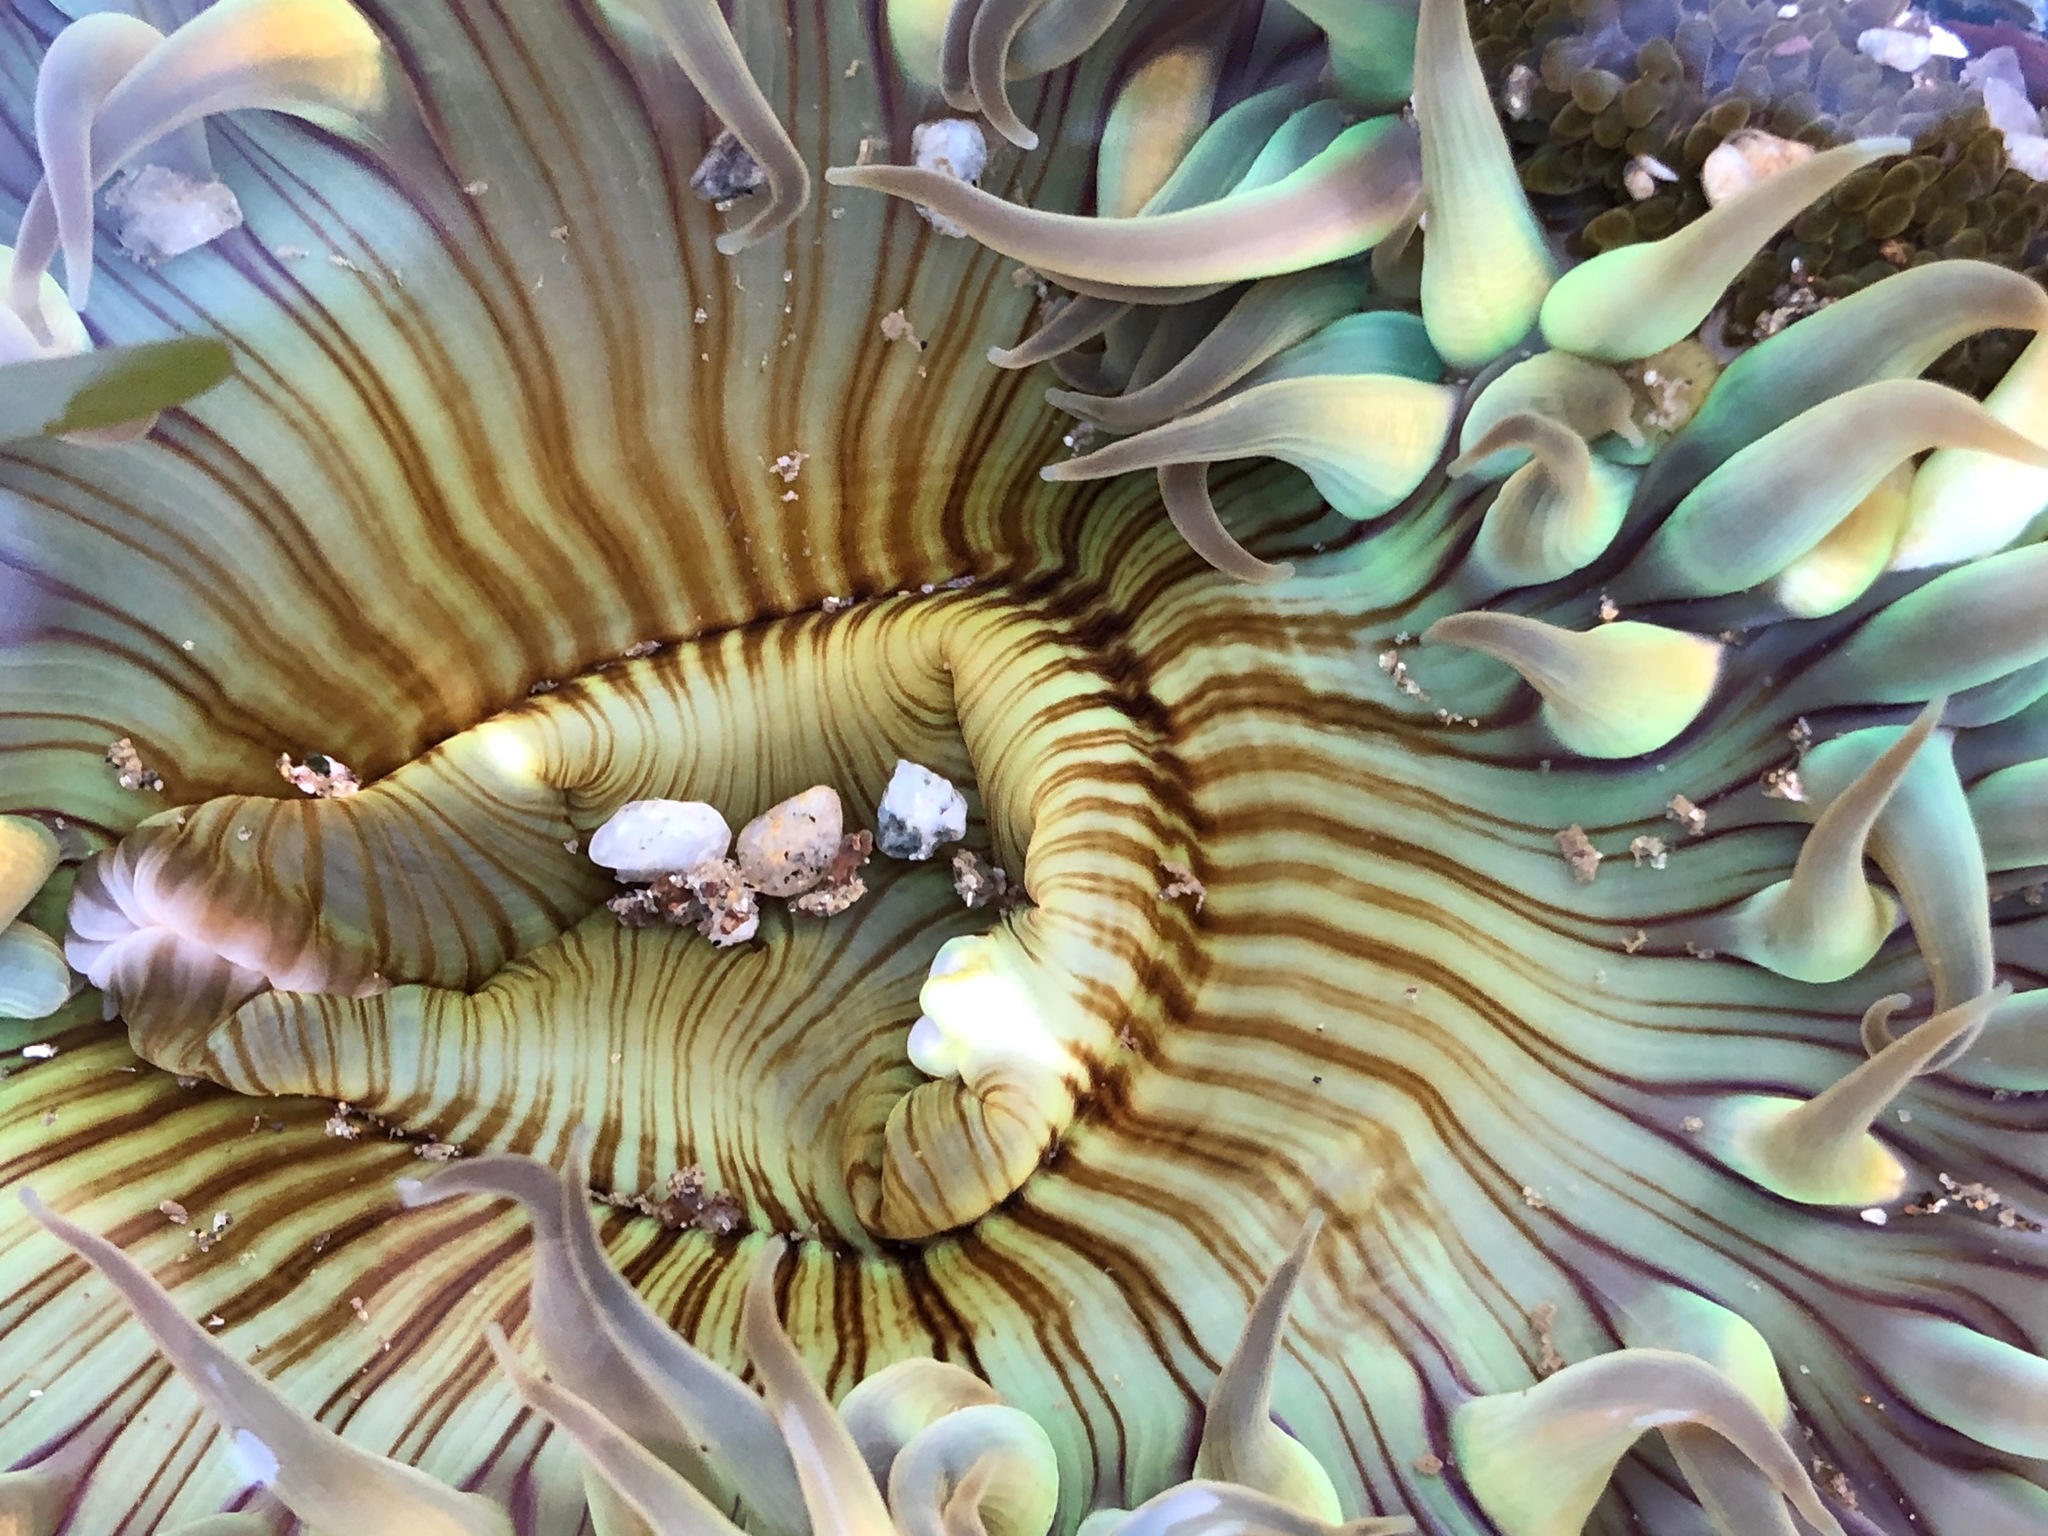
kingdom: Animalia
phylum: Cnidaria
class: Anthozoa
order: Actiniaria
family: Actiniidae
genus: Anthopleura
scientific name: Anthopleura sola
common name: Sun anemone
